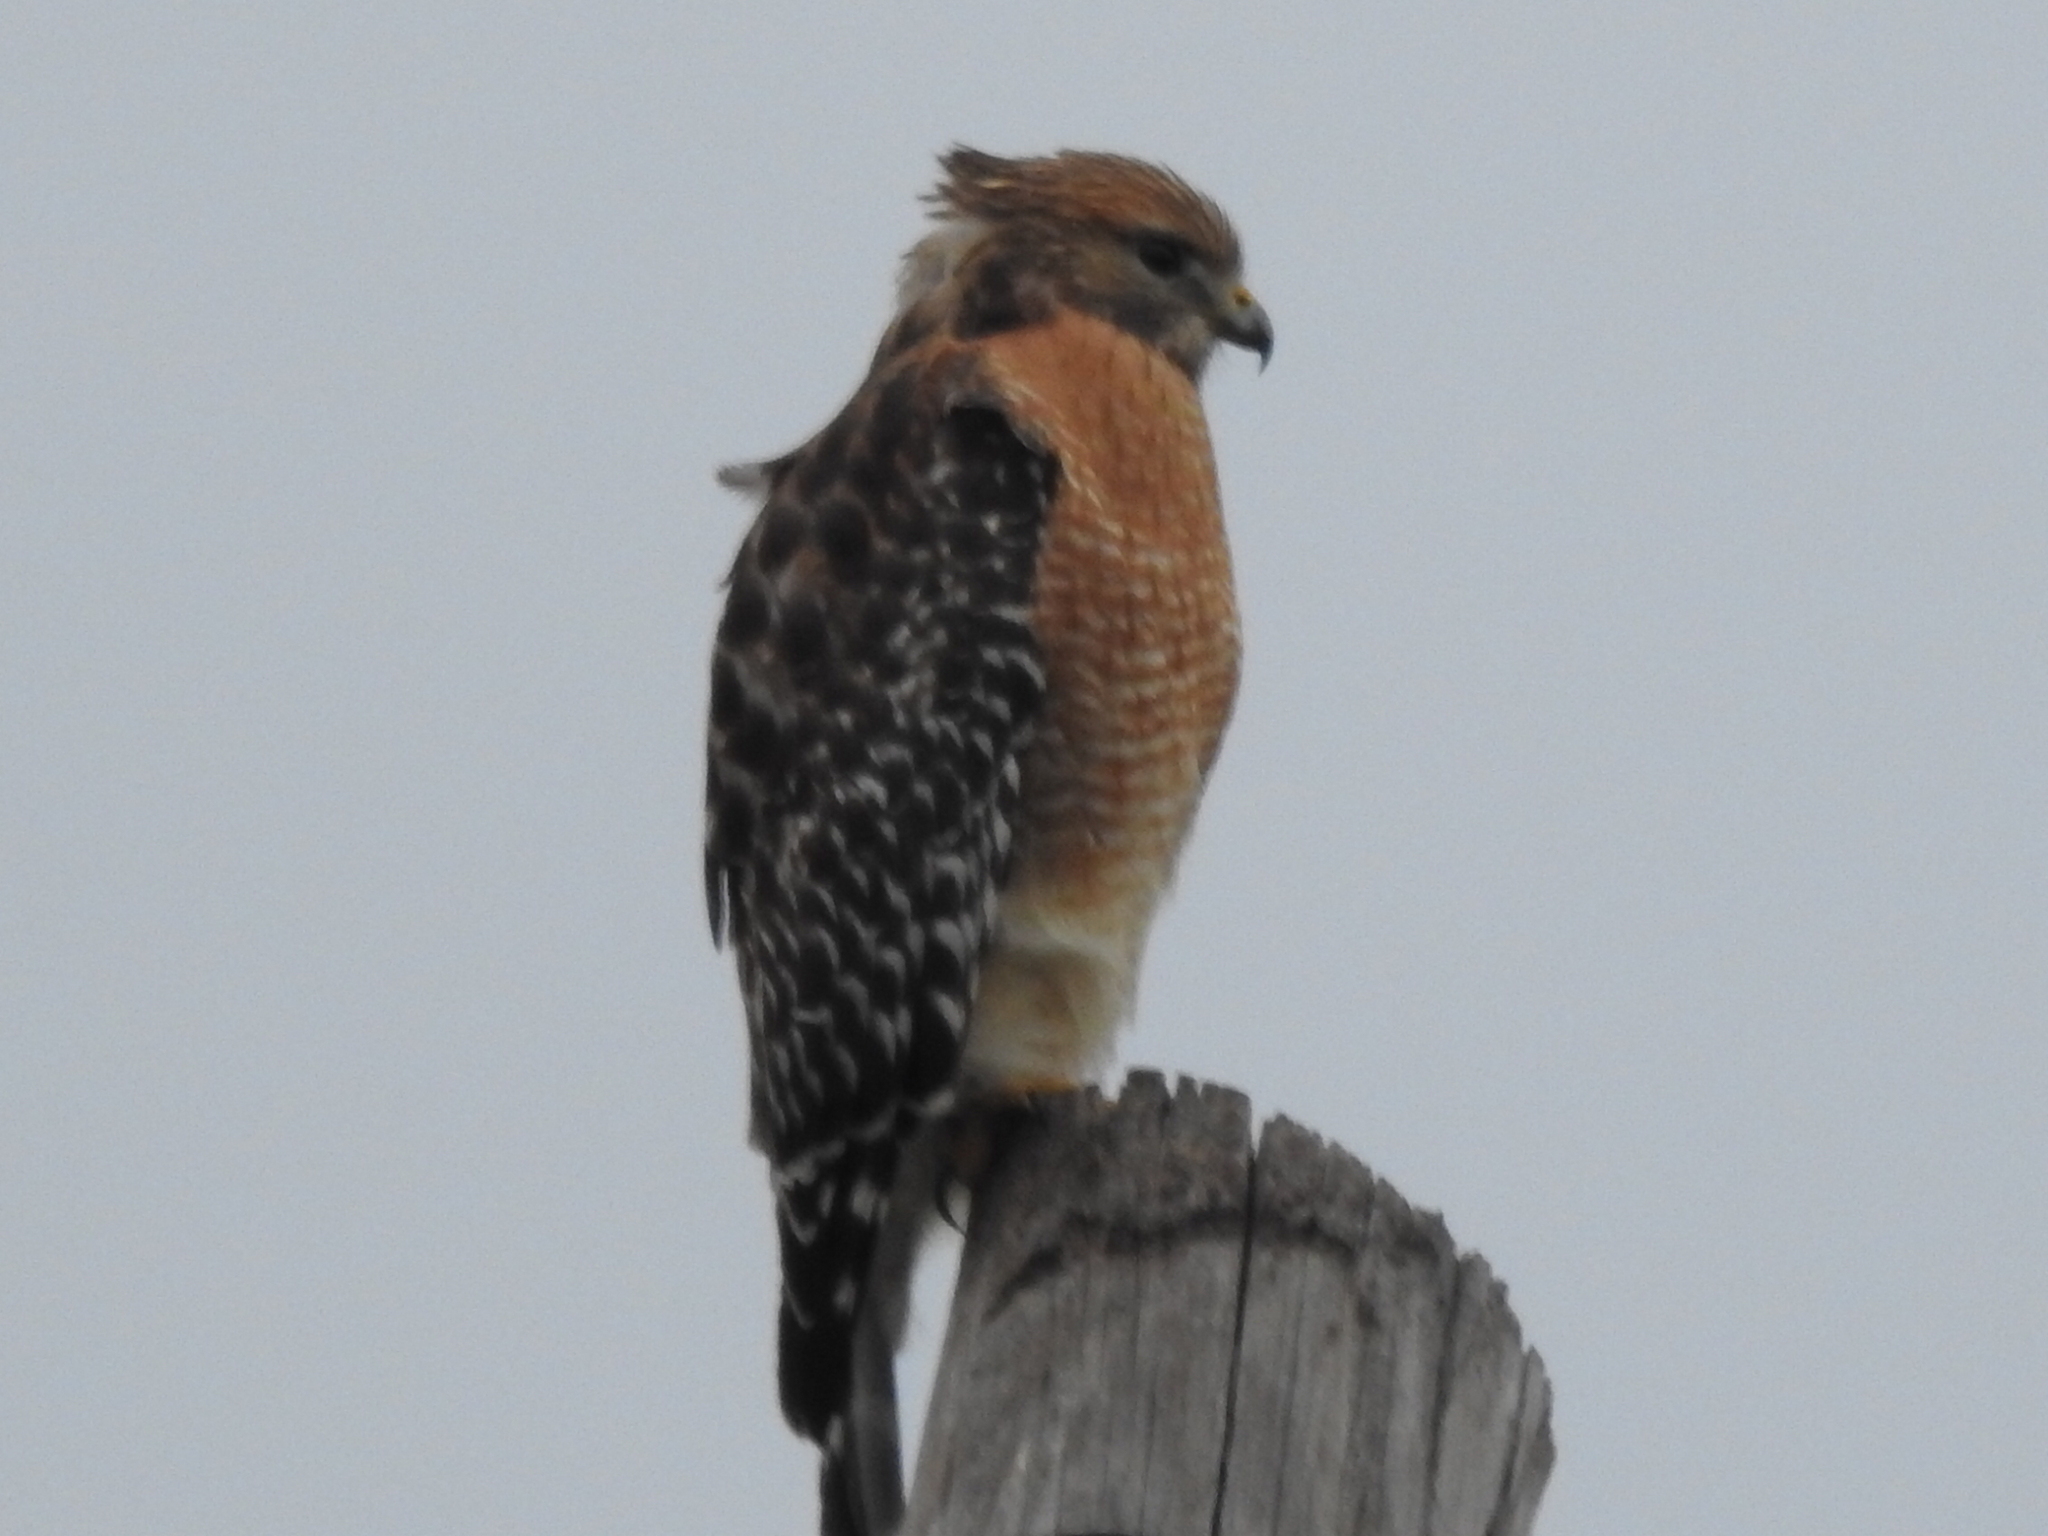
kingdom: Animalia
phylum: Chordata
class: Aves
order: Accipitriformes
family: Accipitridae
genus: Buteo
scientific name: Buteo lineatus
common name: Red-shouldered hawk
